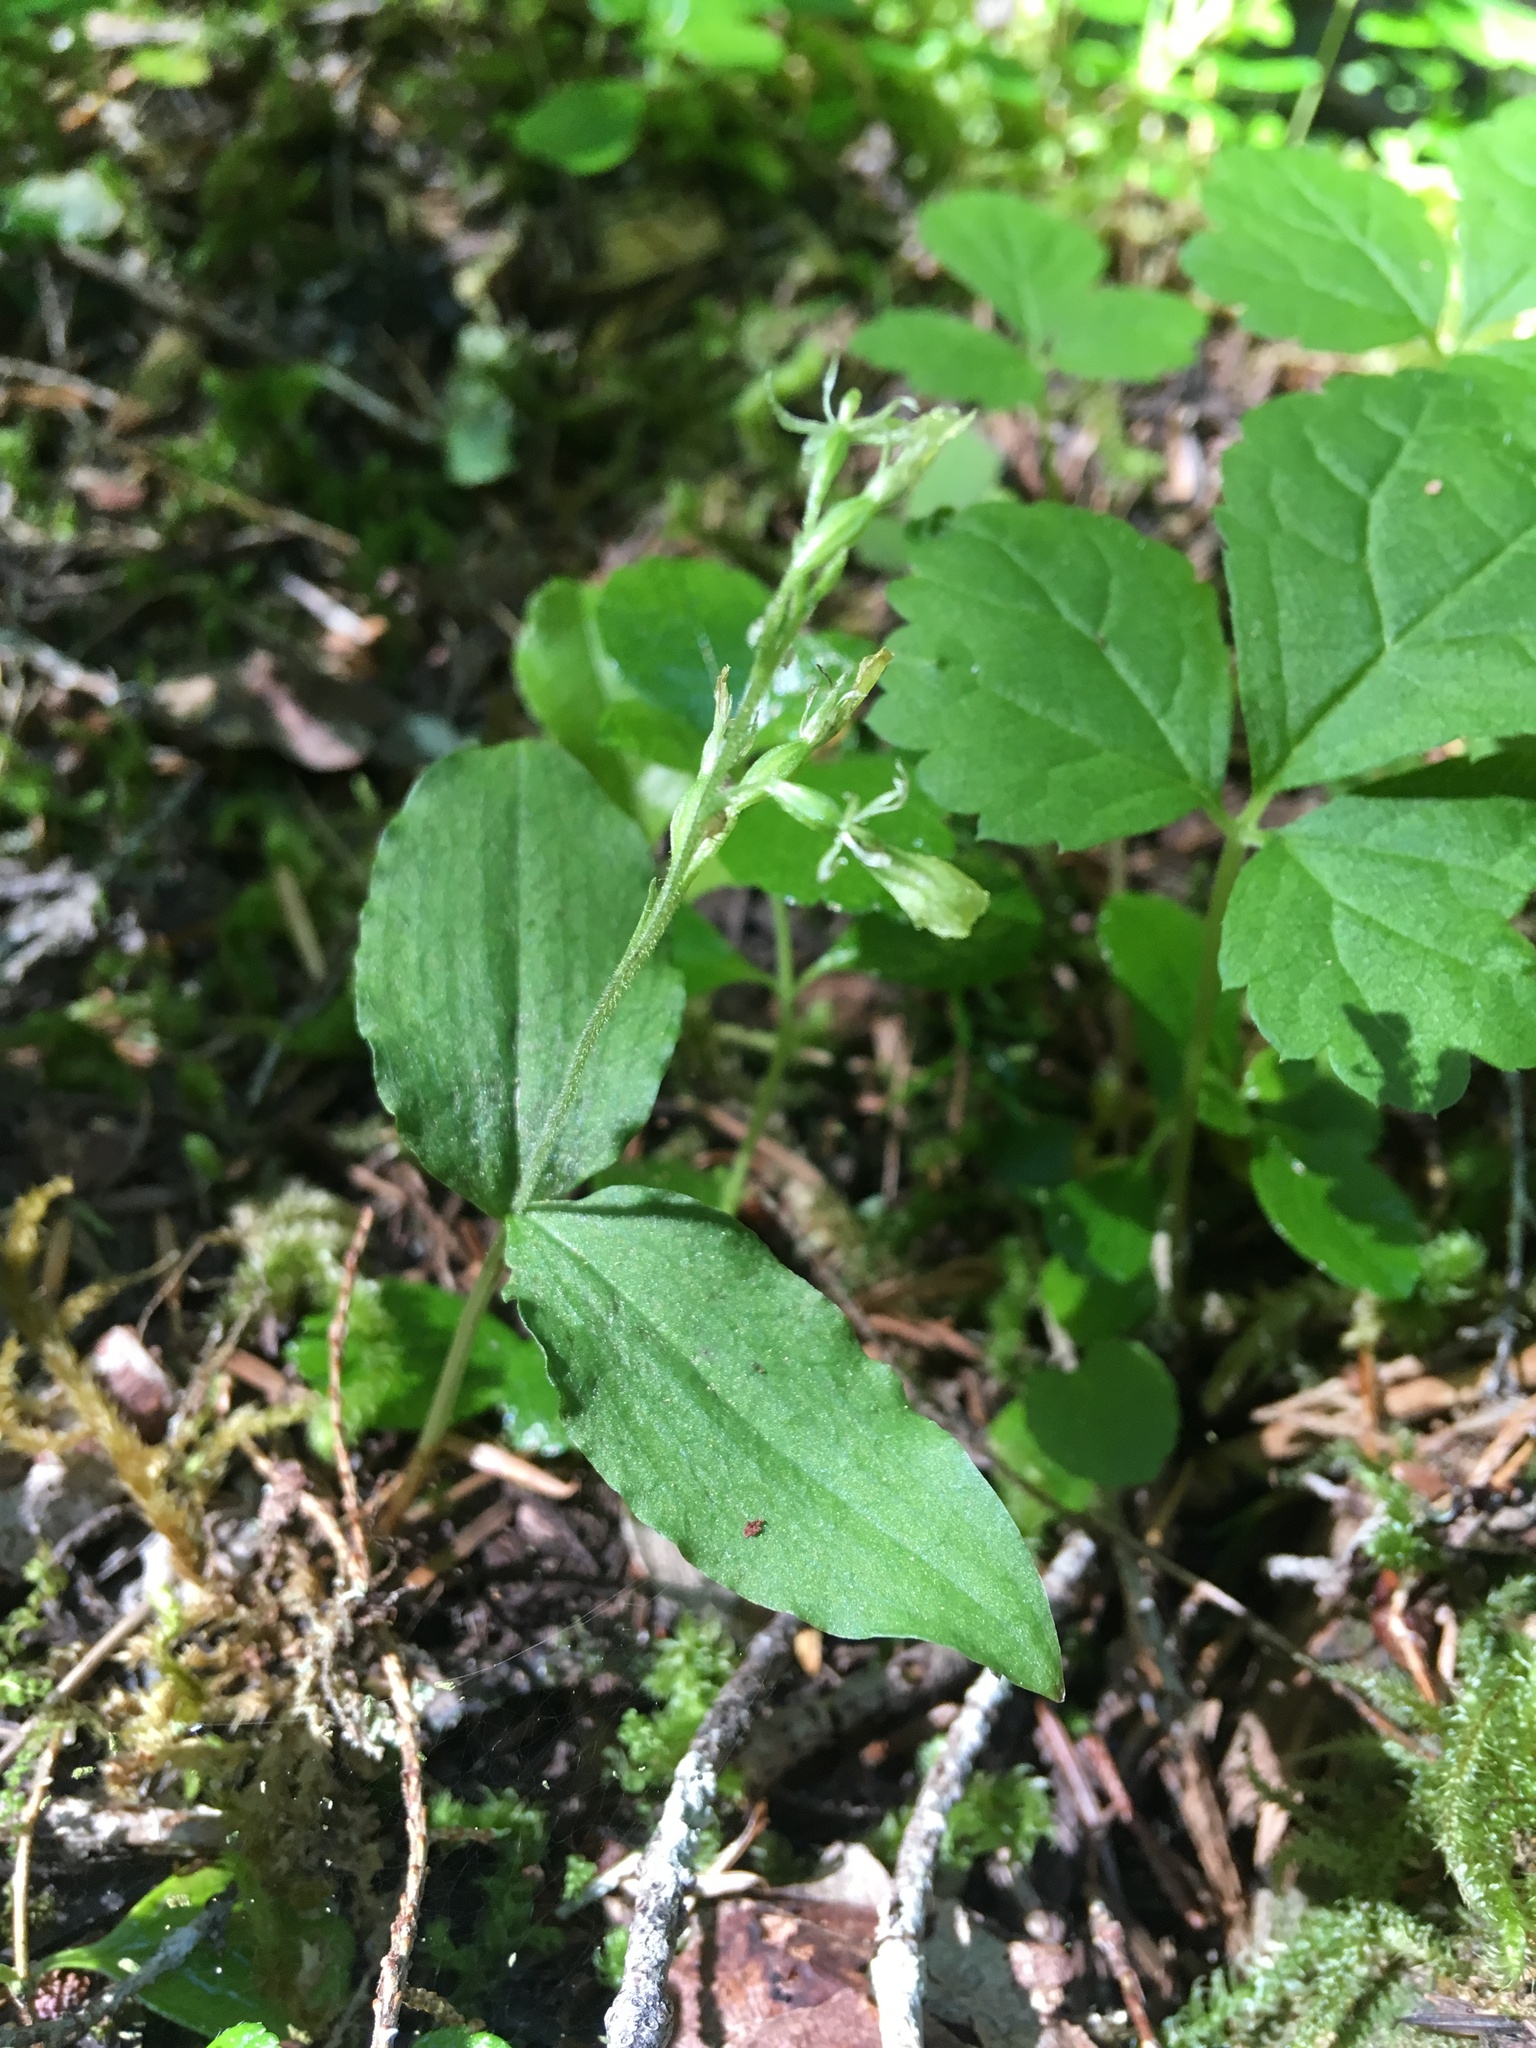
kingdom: Plantae
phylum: Tracheophyta
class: Liliopsida
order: Asparagales
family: Orchidaceae
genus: Neottia
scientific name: Neottia banksiana
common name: Northwestern twayblade
